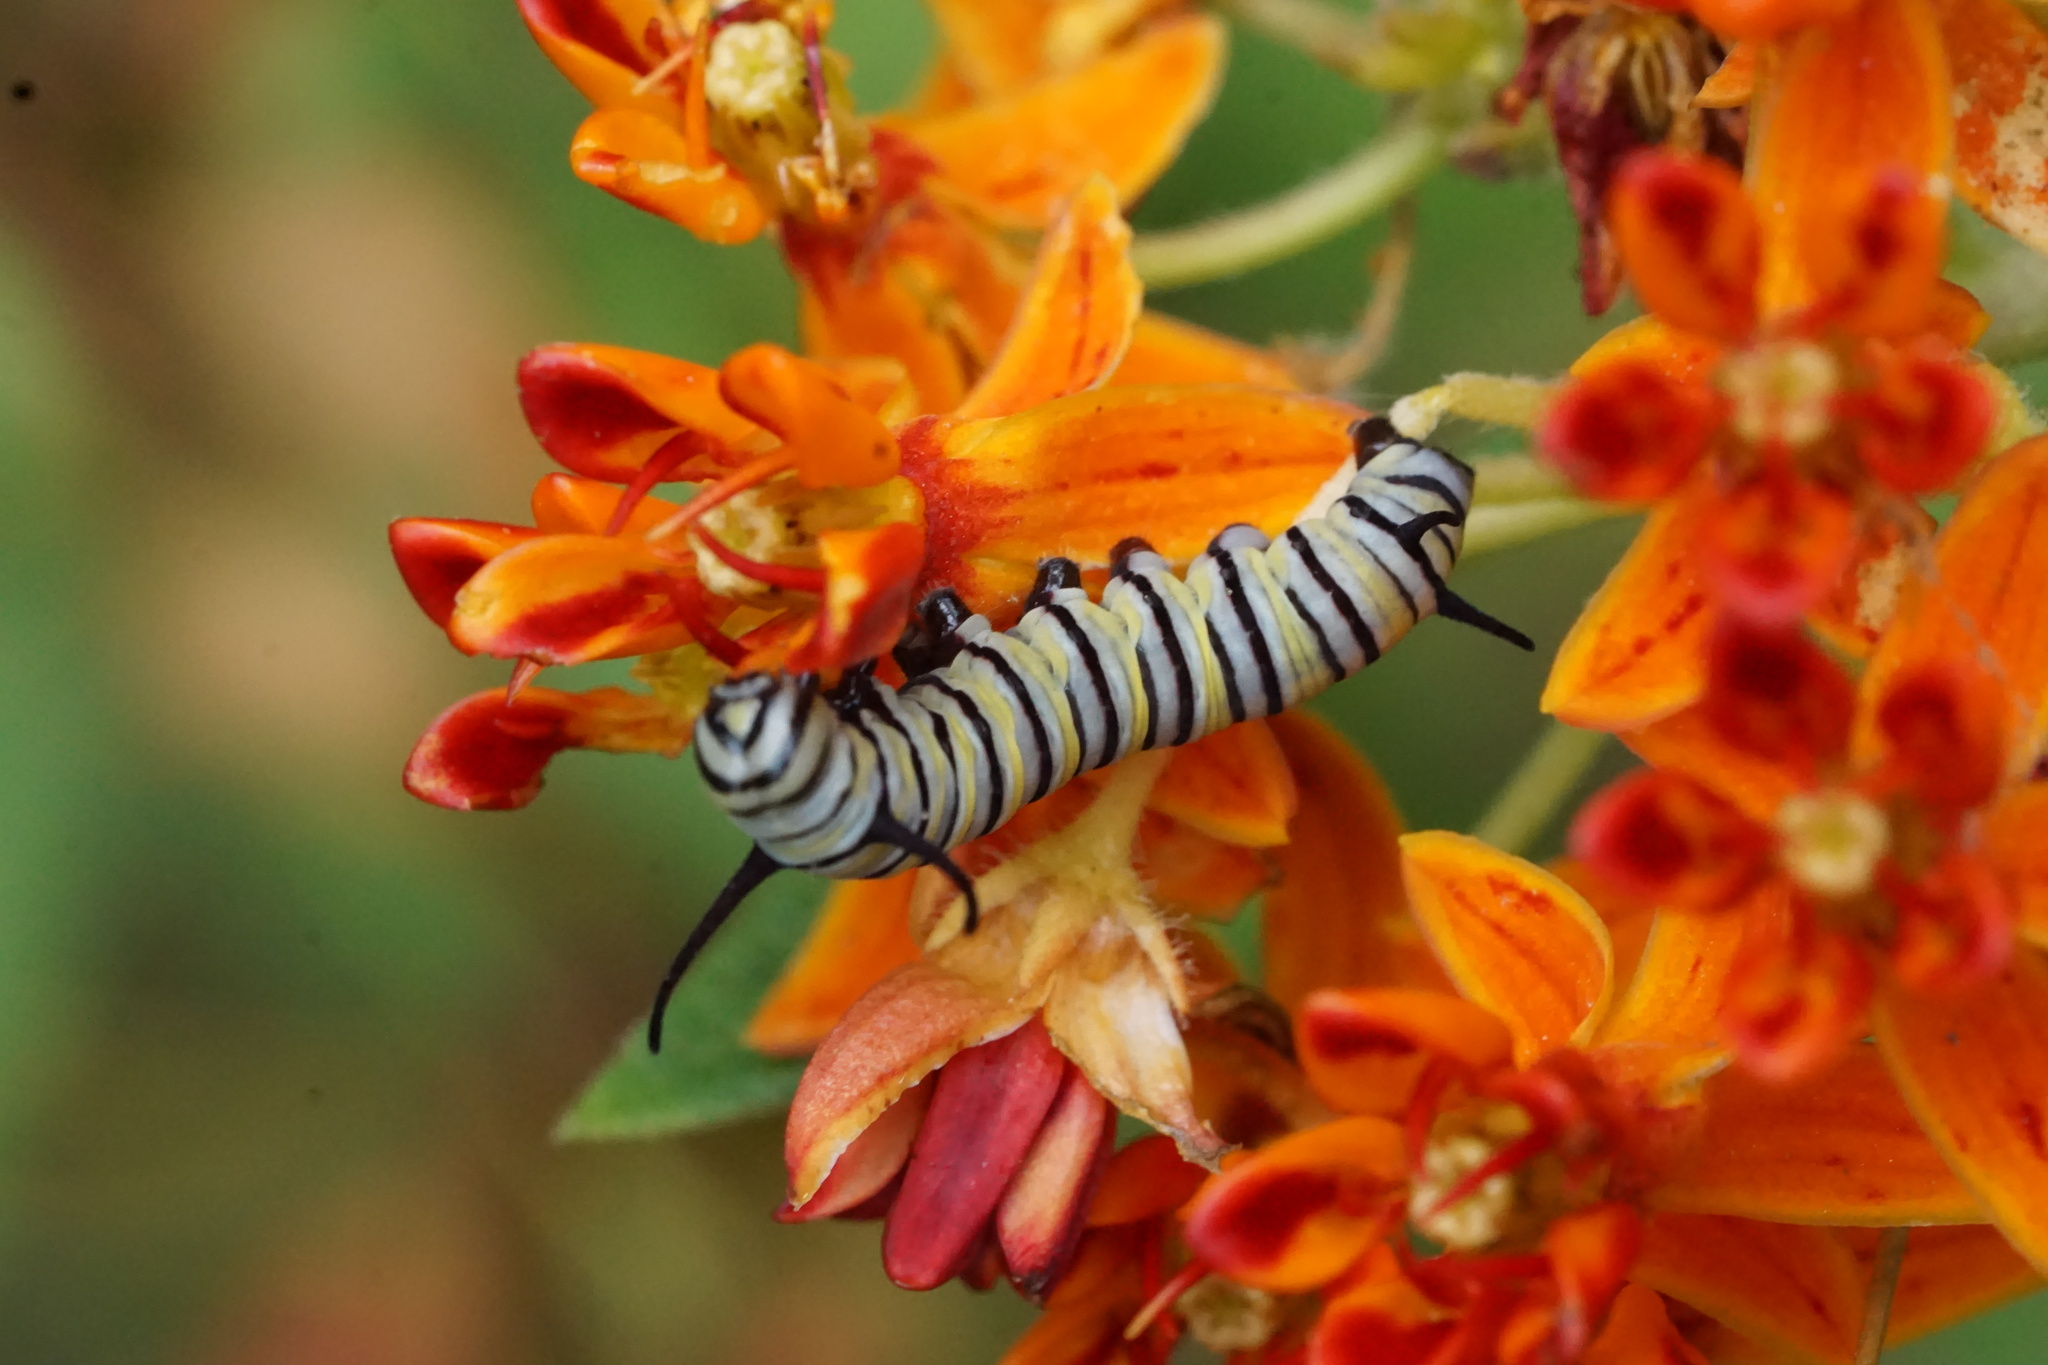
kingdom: Animalia
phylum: Arthropoda
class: Insecta
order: Lepidoptera
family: Nymphalidae
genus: Danaus
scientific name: Danaus plexippus
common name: Monarch
